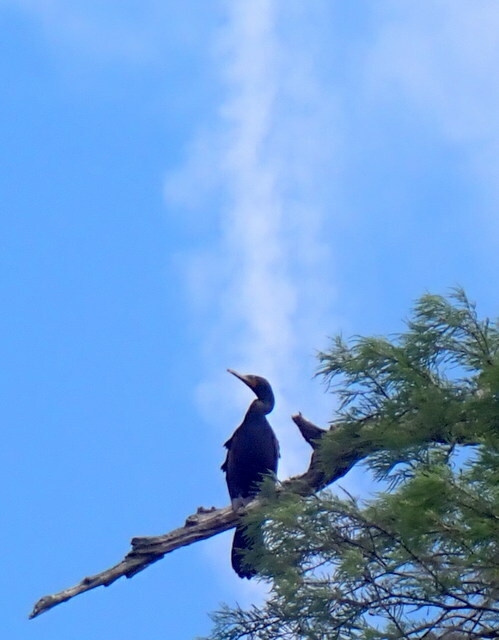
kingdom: Animalia
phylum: Chordata
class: Aves
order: Suliformes
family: Phalacrocoracidae
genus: Phalacrocorax
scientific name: Phalacrocorax auritus
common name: Double-crested cormorant
